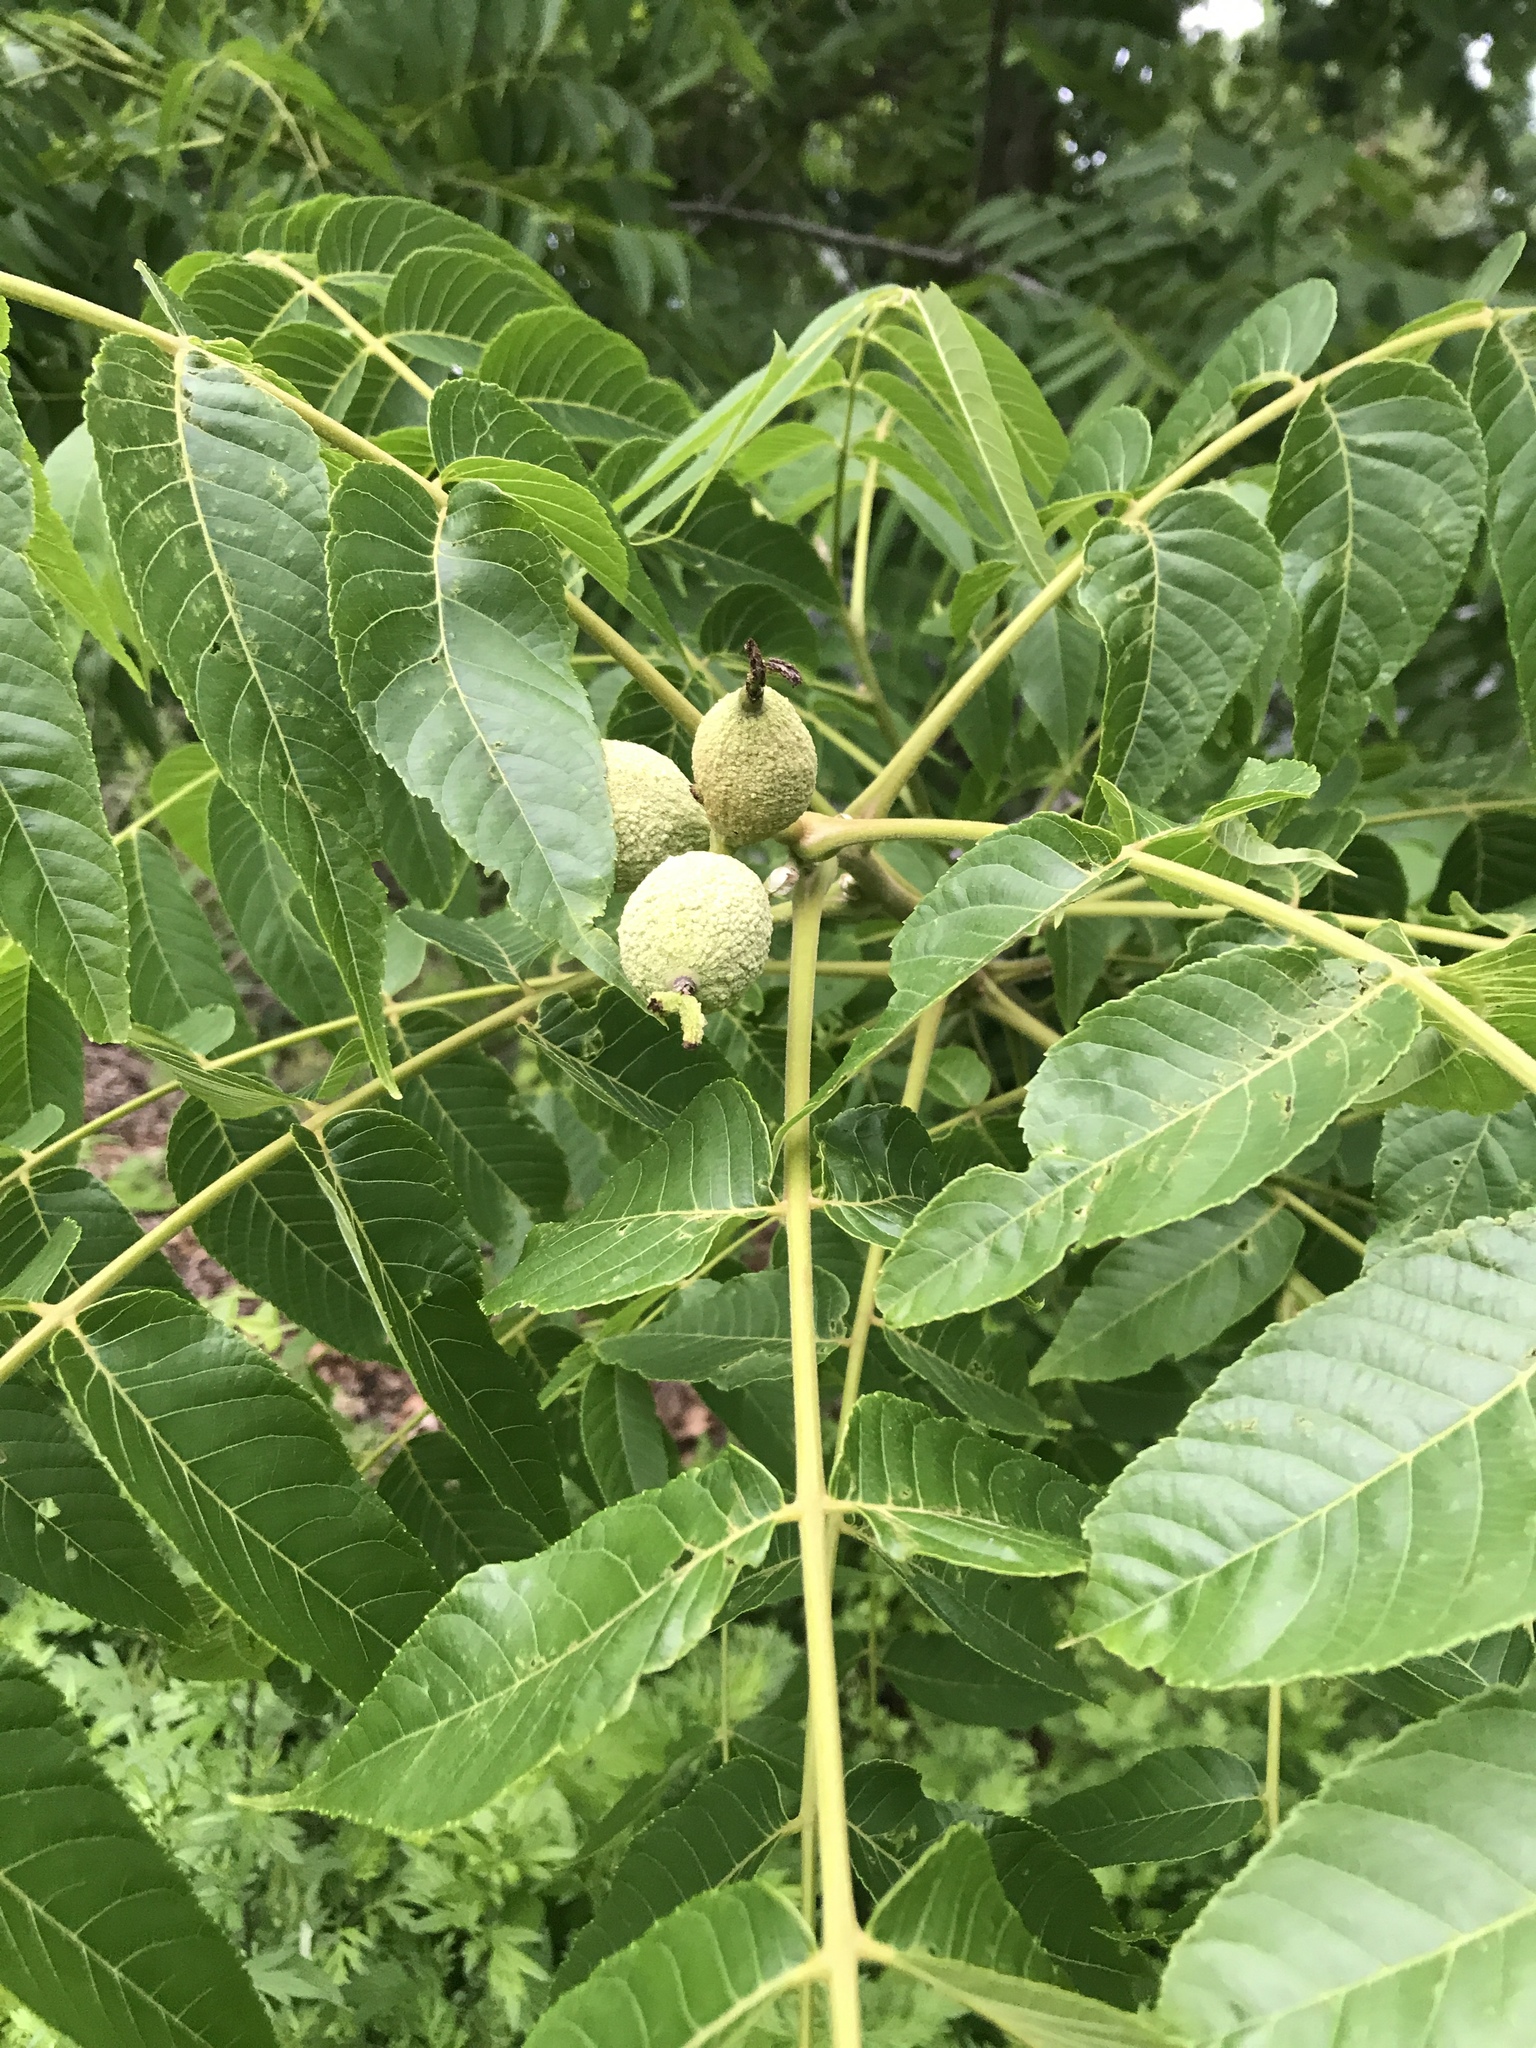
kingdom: Plantae
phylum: Tracheophyta
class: Magnoliopsida
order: Fagales
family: Juglandaceae
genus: Juglans
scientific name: Juglans nigra
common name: Black walnut
